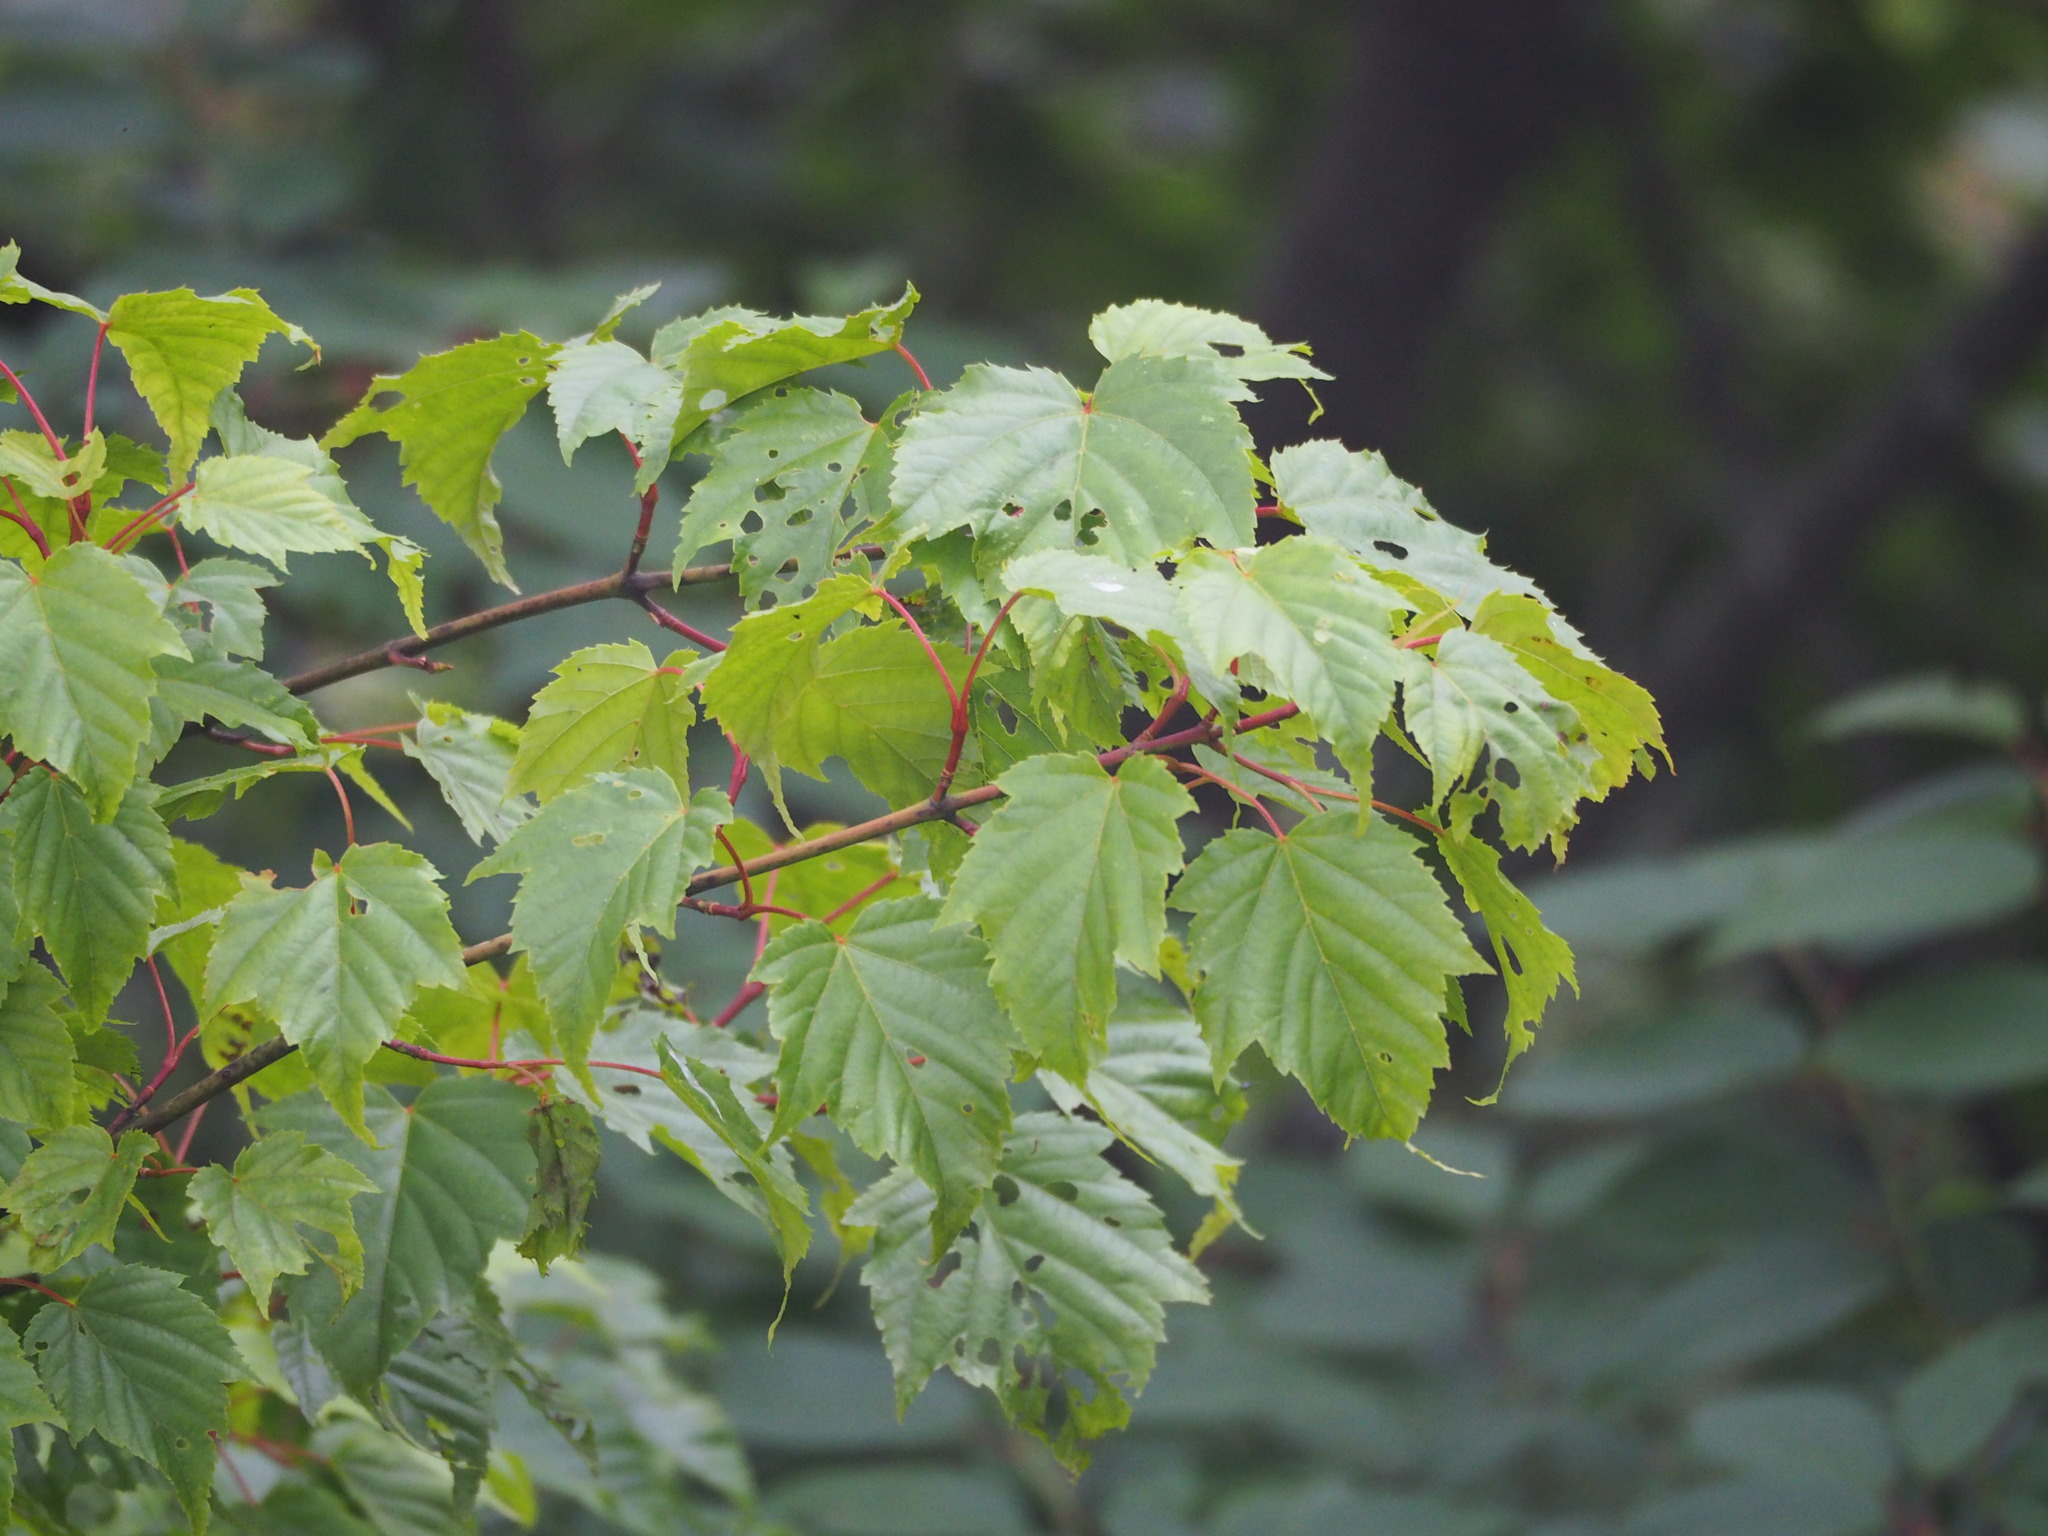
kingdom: Plantae
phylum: Tracheophyta
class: Magnoliopsida
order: Sapindales
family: Sapindaceae
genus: Acer
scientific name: Acer caudatifolium
